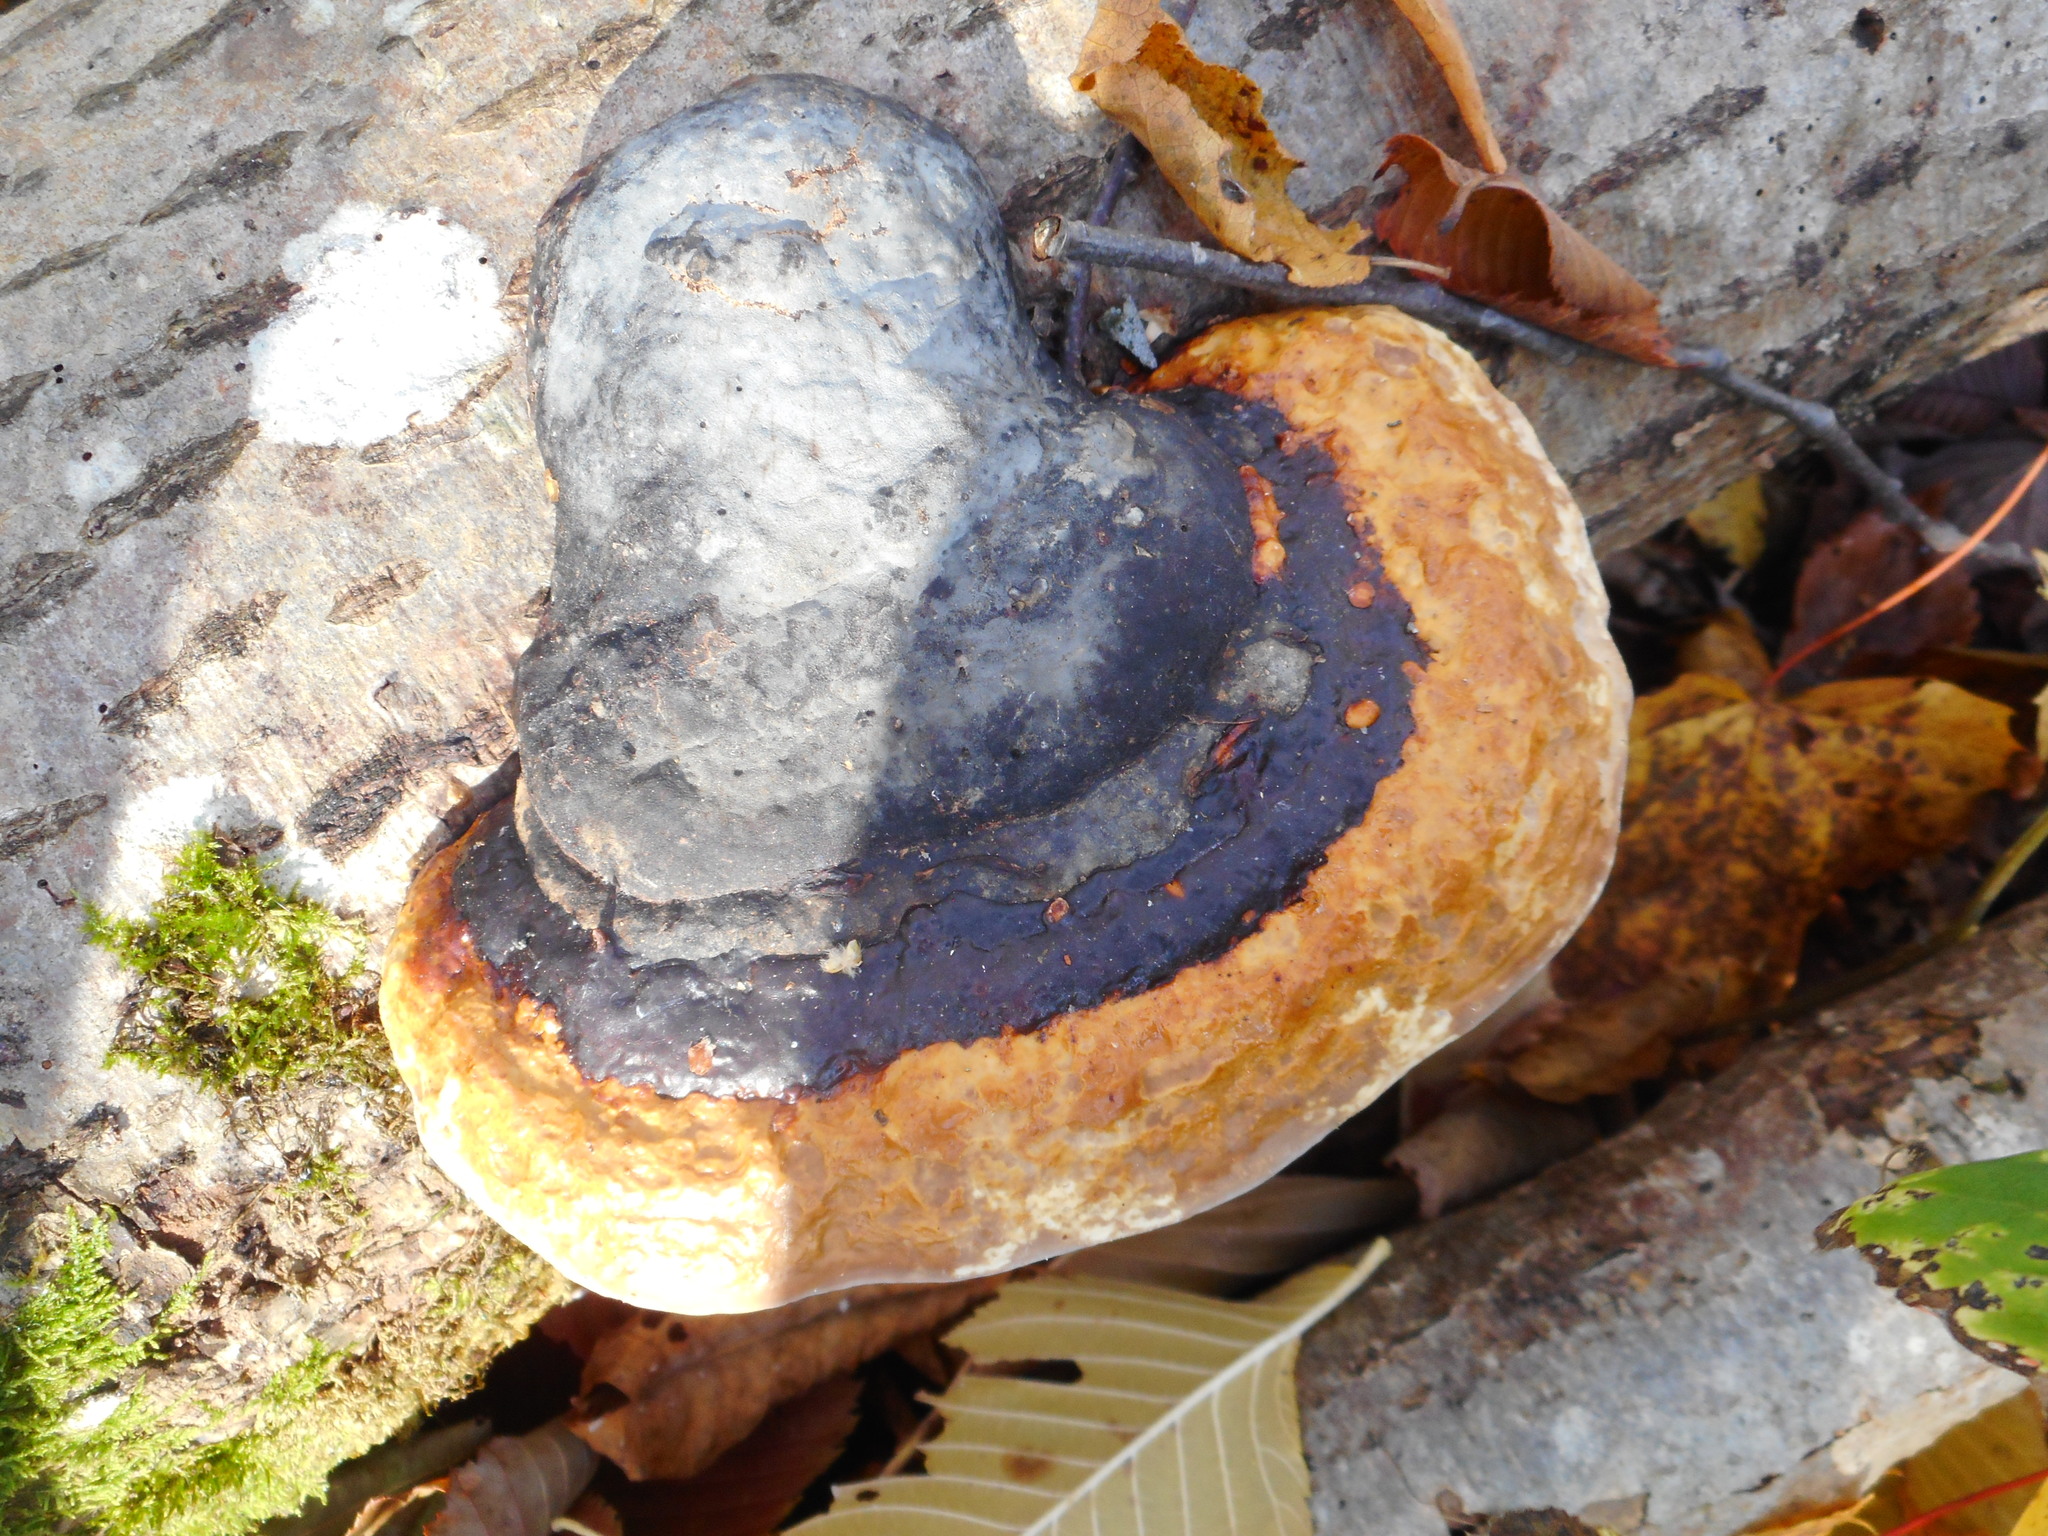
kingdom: Fungi
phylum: Basidiomycota
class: Agaricomycetes
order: Polyporales
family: Fomitopsidaceae
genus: Fomitopsis
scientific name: Fomitopsis pinicola
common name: Red-belted bracket
